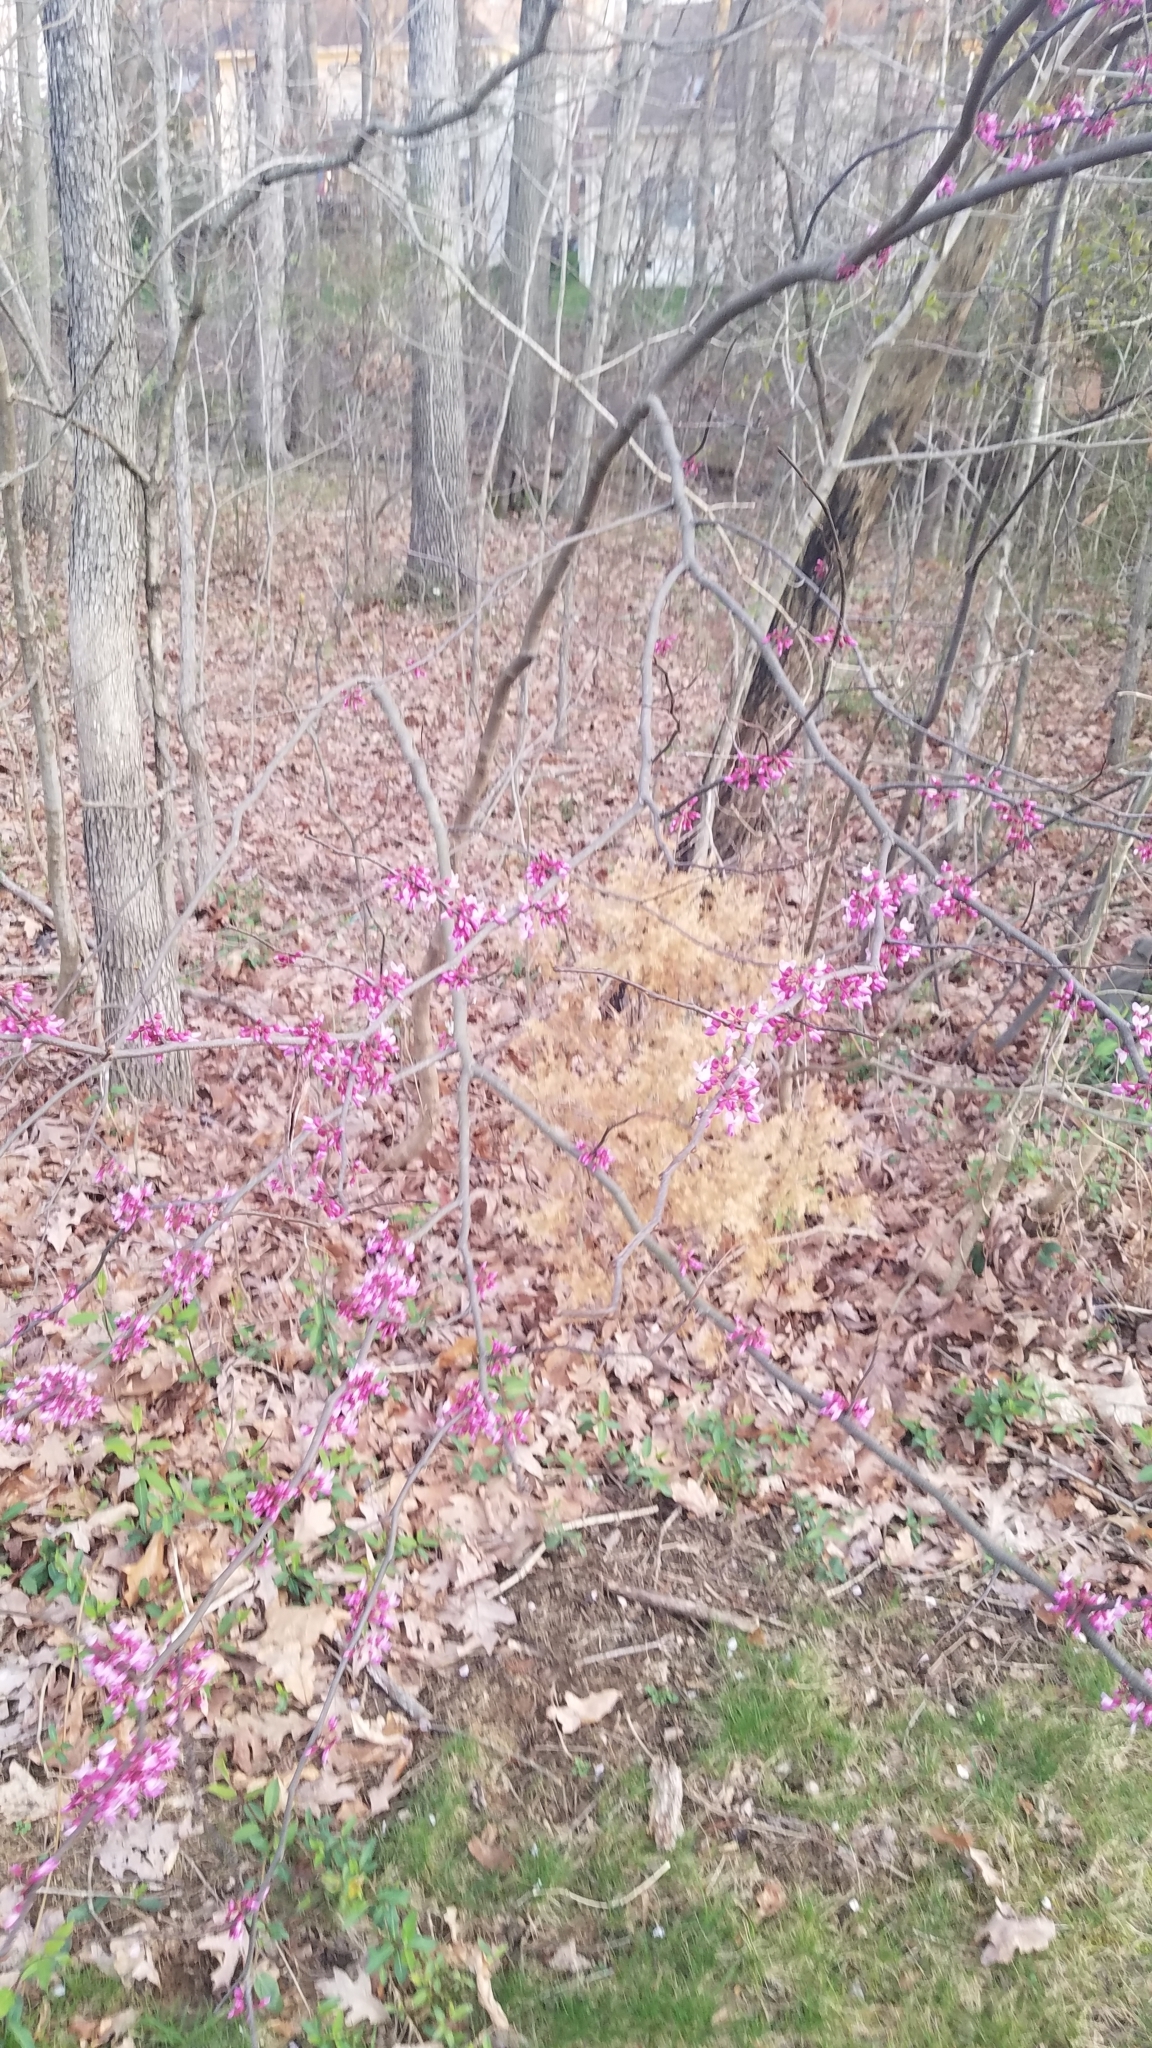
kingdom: Plantae
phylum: Tracheophyta
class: Magnoliopsida
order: Fabales
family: Fabaceae
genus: Cercis
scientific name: Cercis canadensis
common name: Eastern redbud
